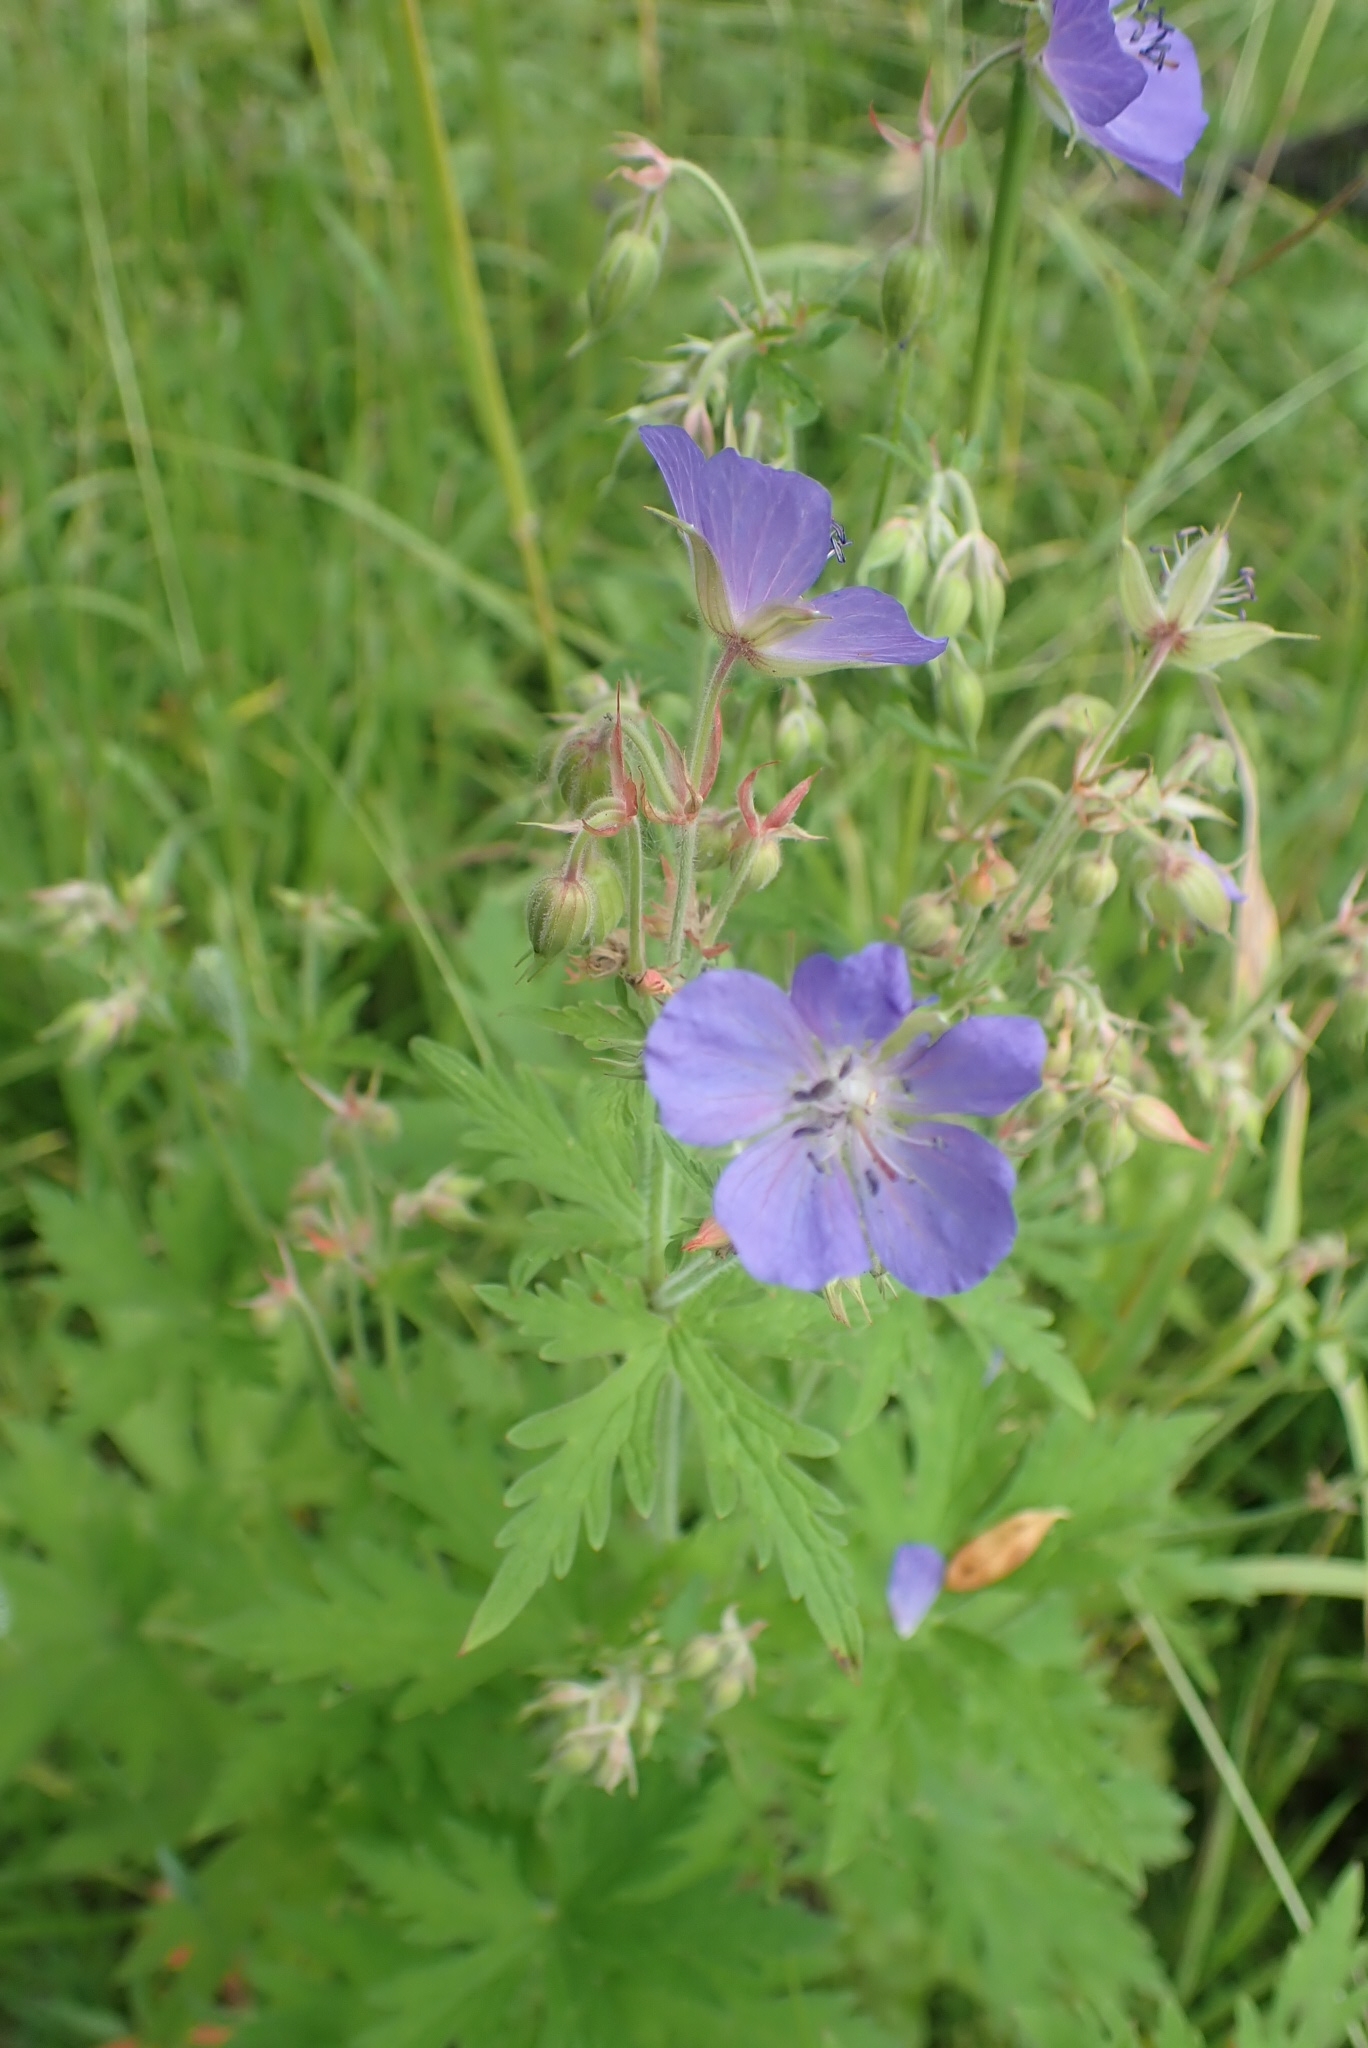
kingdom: Plantae
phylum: Tracheophyta
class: Magnoliopsida
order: Geraniales
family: Geraniaceae
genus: Geranium
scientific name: Geranium pratense
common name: Meadow crane's-bill
